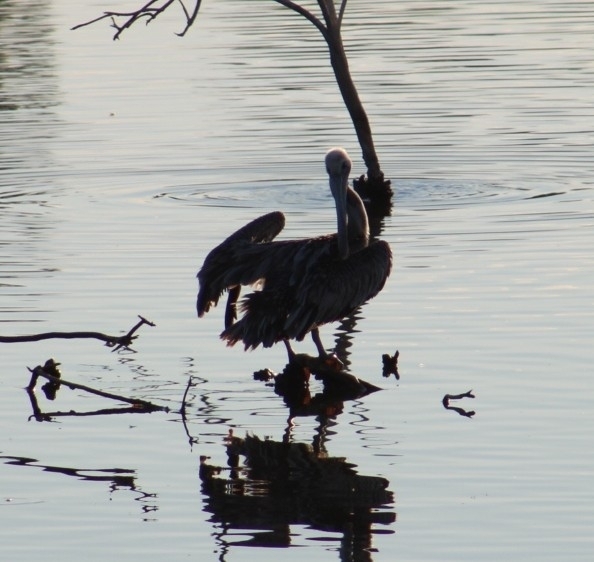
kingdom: Animalia
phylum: Chordata
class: Aves
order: Pelecaniformes
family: Pelecanidae
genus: Pelecanus
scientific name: Pelecanus occidentalis
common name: Brown pelican
